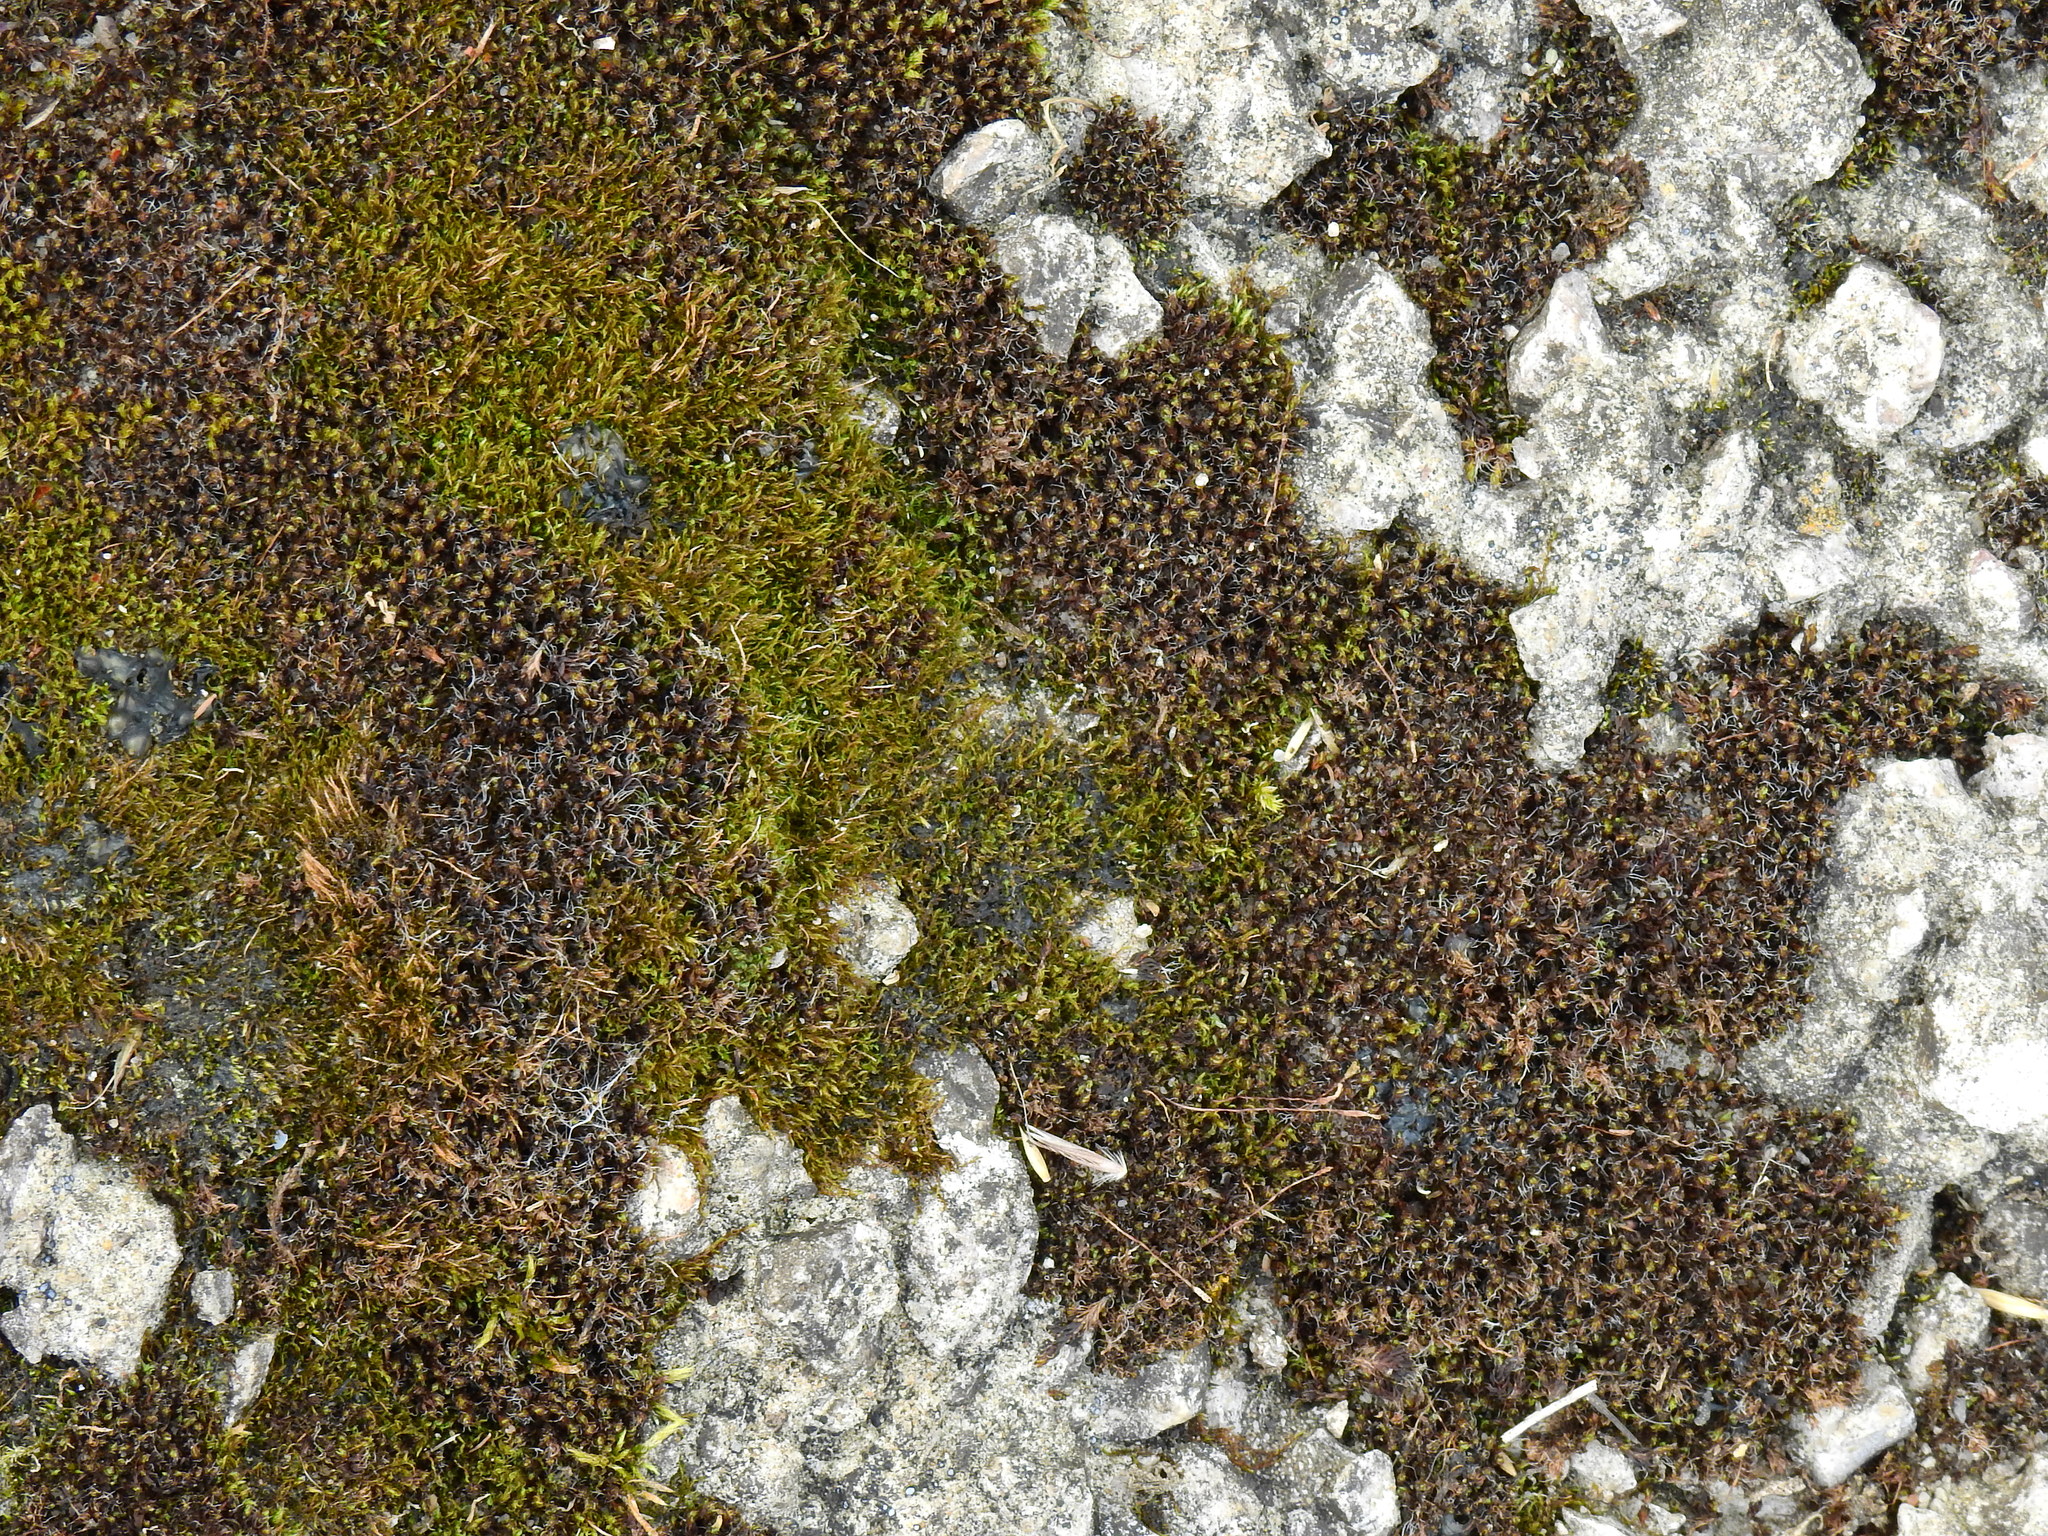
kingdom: Plantae
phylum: Bryophyta
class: Bryopsida
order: Pottiales
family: Pottiaceae
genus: Tortula
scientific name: Tortula muralis
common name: Wall screw-moss
